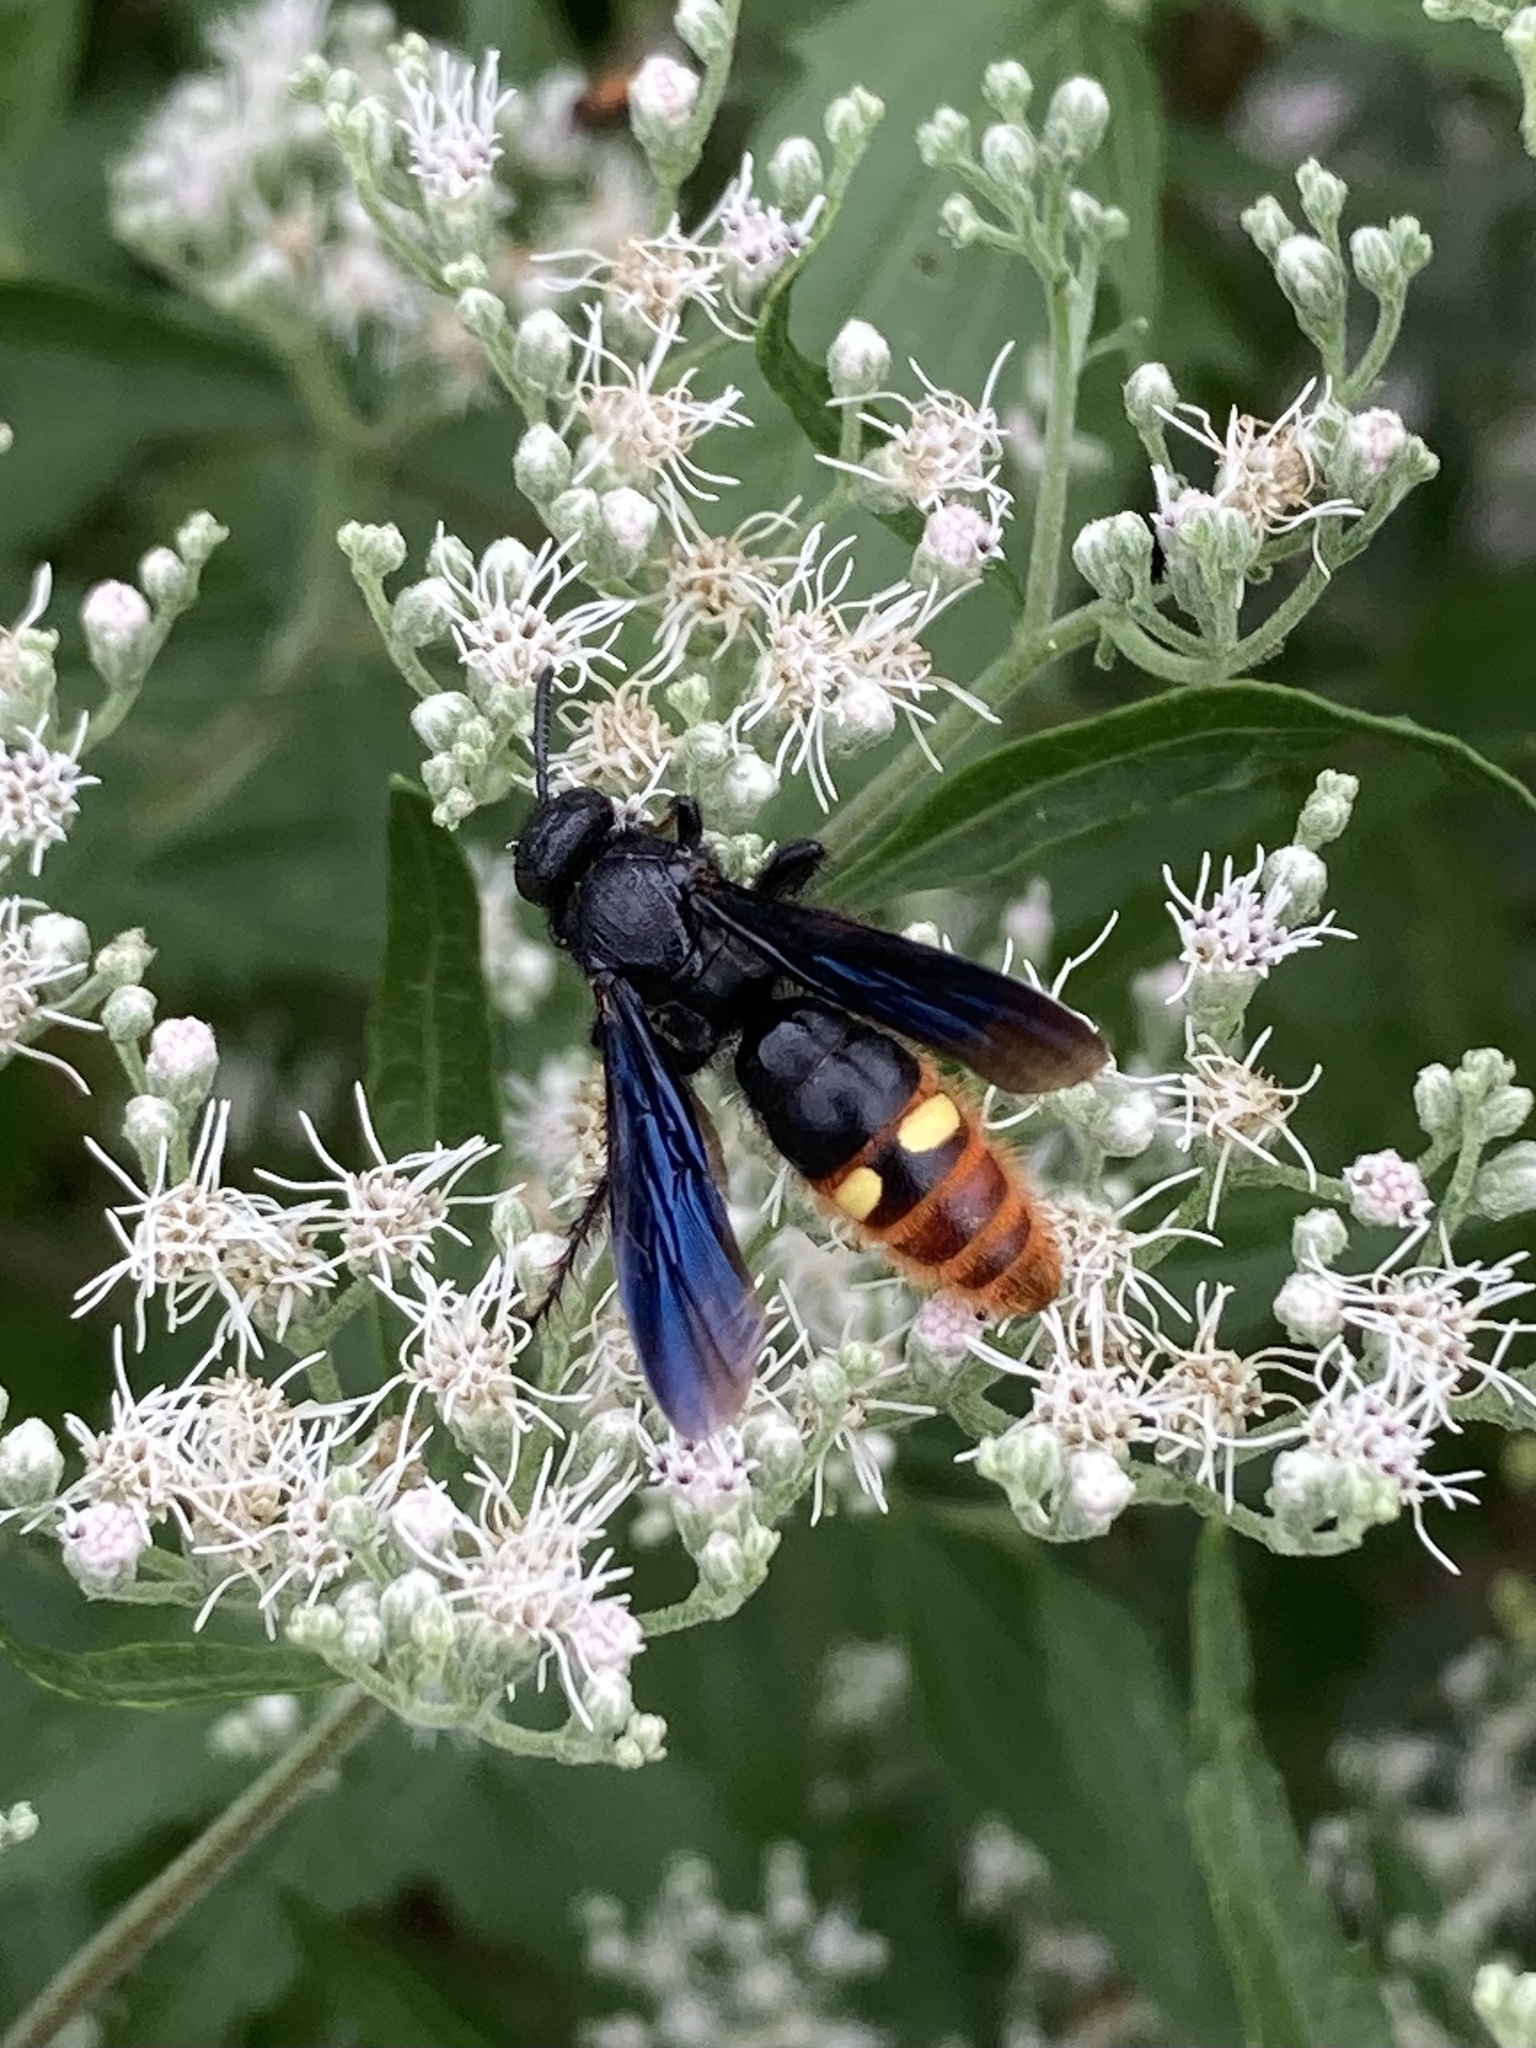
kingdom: Animalia
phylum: Arthropoda
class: Insecta
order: Hymenoptera
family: Scoliidae
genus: Scolia
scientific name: Scolia dubia
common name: Blue-winged scoliid wasp
